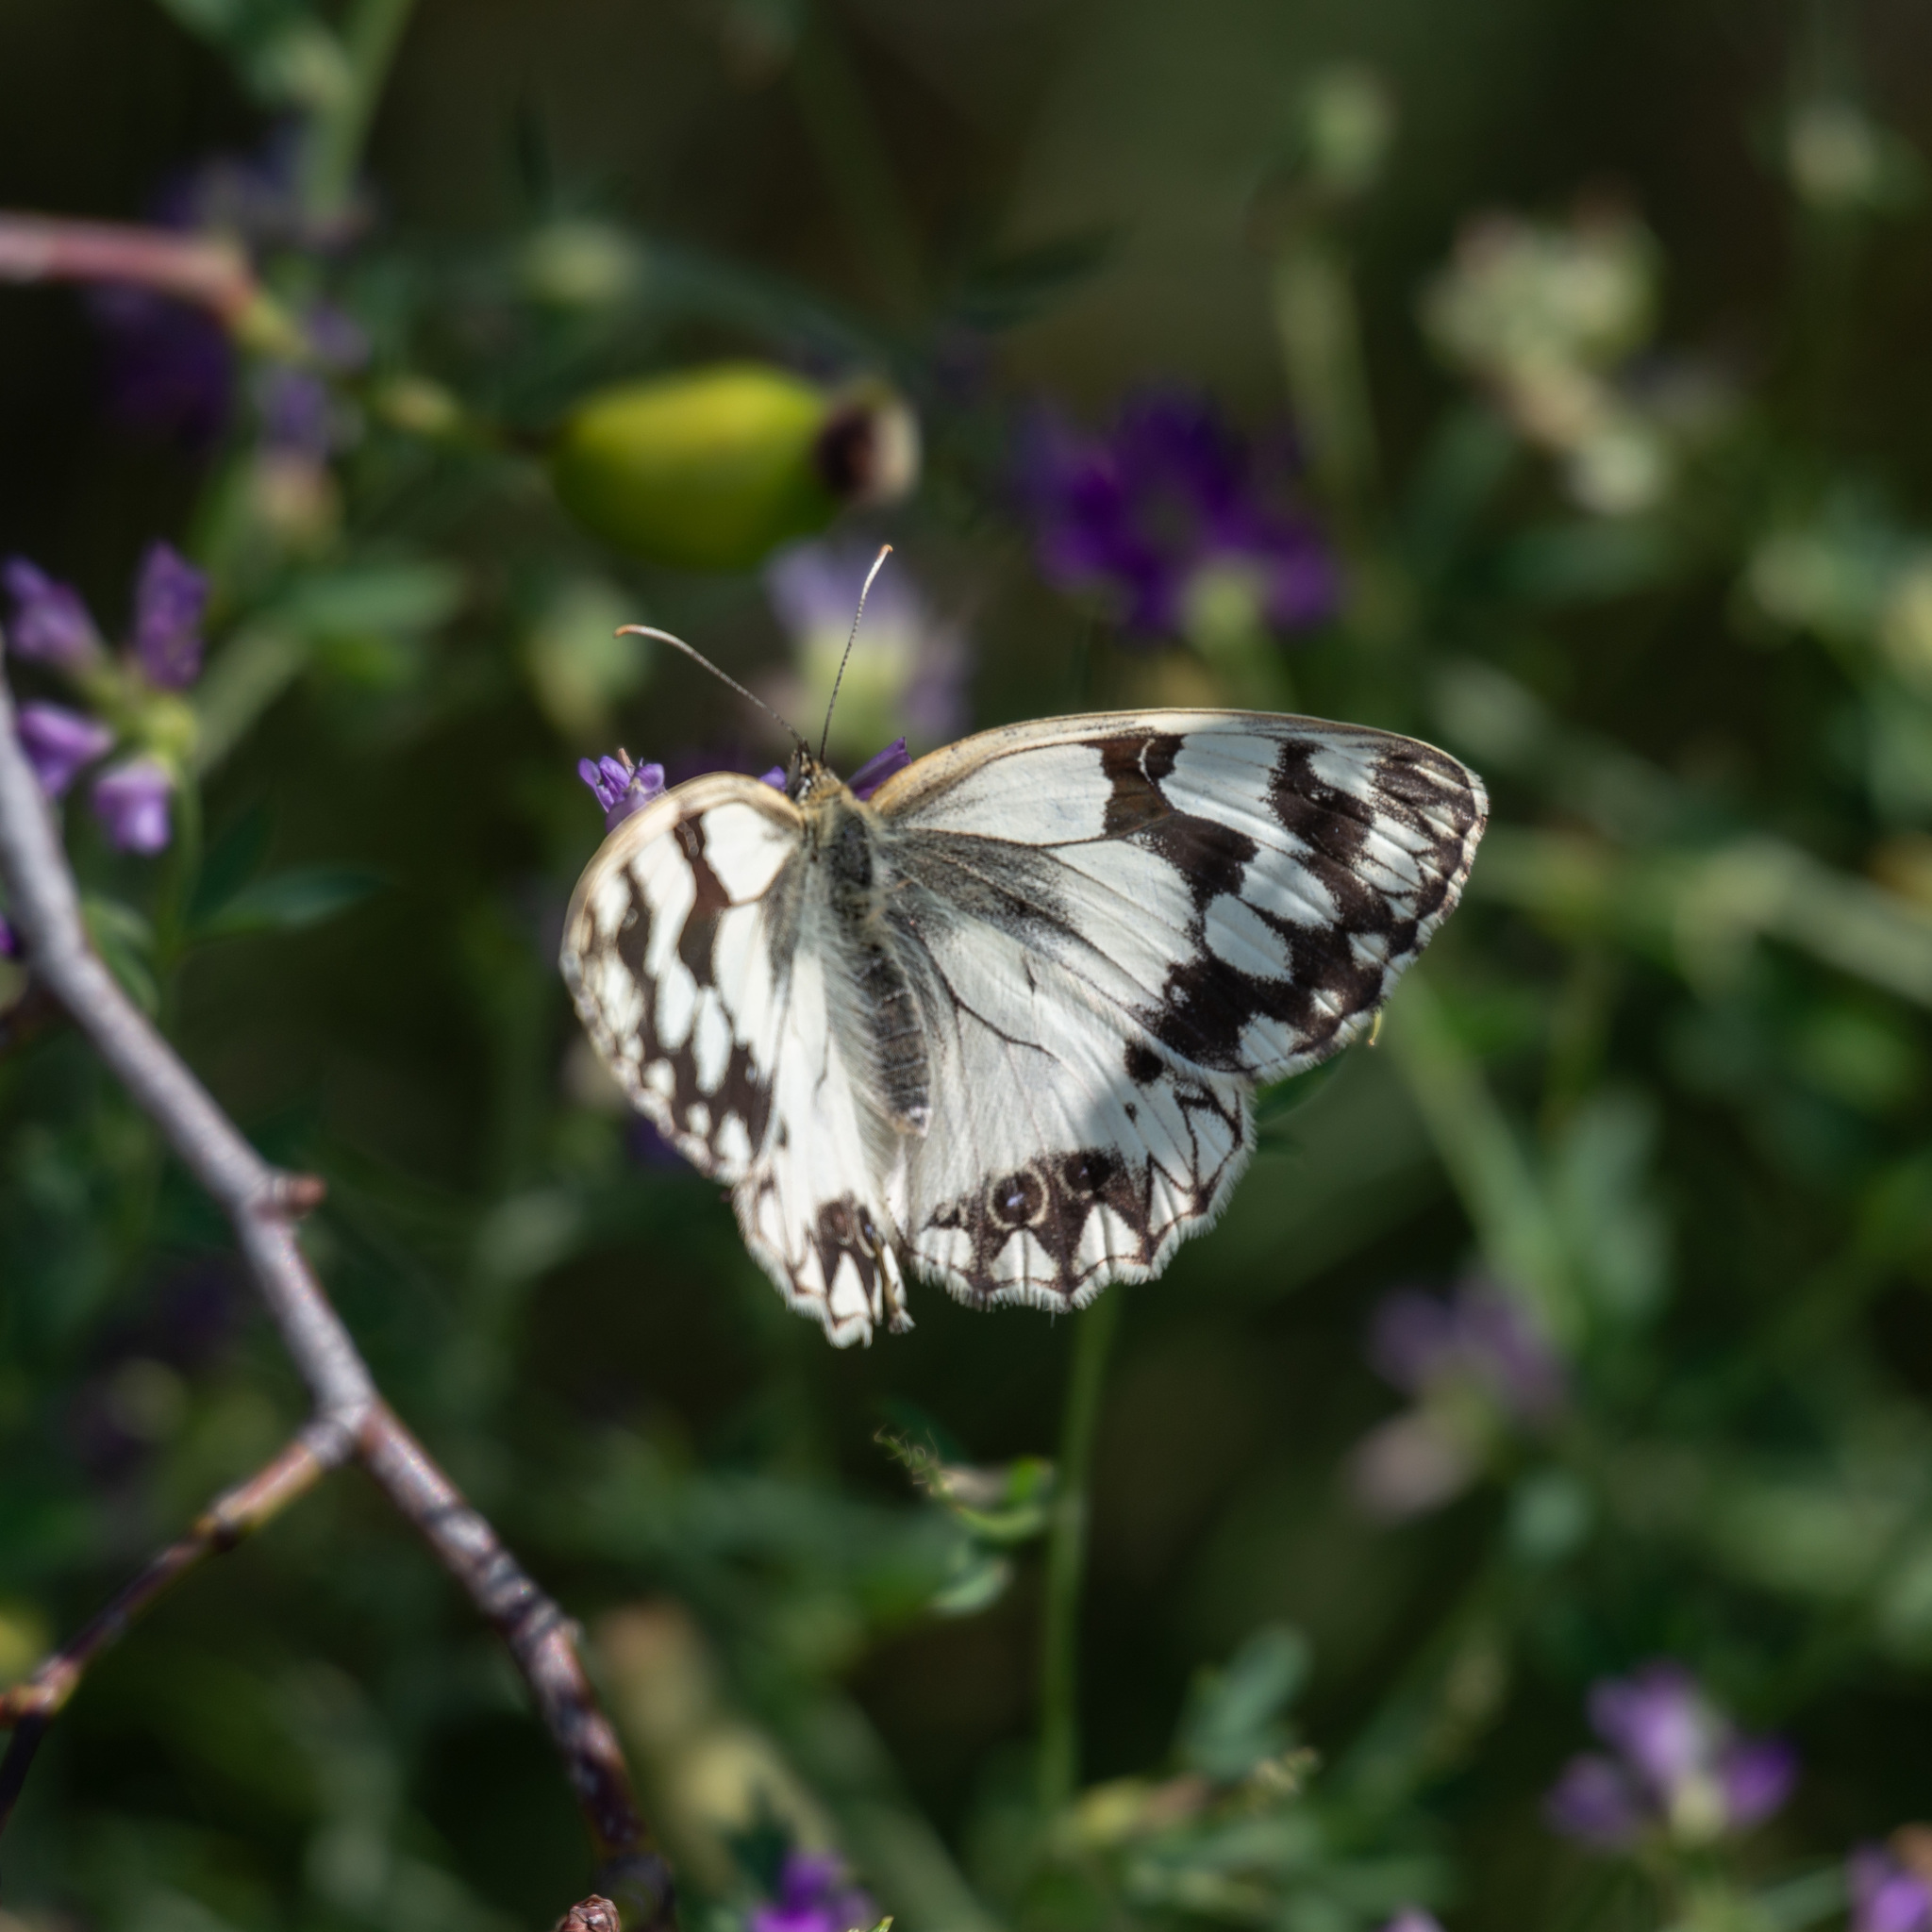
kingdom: Animalia
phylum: Arthropoda
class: Insecta
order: Lepidoptera
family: Nymphalidae
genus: Melanargia
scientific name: Melanargia lachesis
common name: Iberian marbled white
